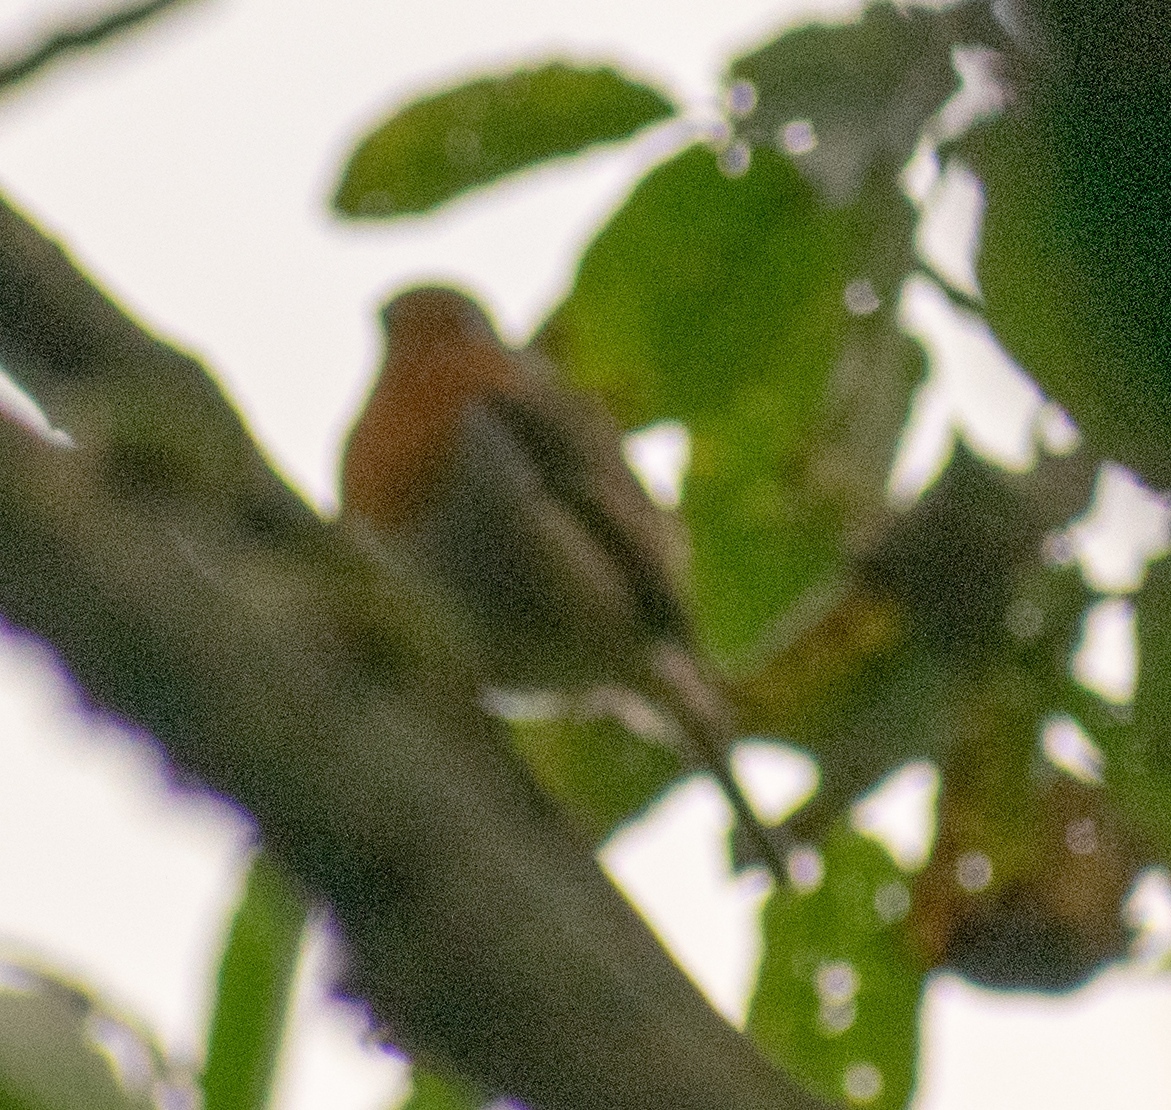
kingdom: Animalia
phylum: Chordata
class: Aves
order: Passeriformes
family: Muscicapidae
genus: Erithacus
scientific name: Erithacus rubecula
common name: European robin
